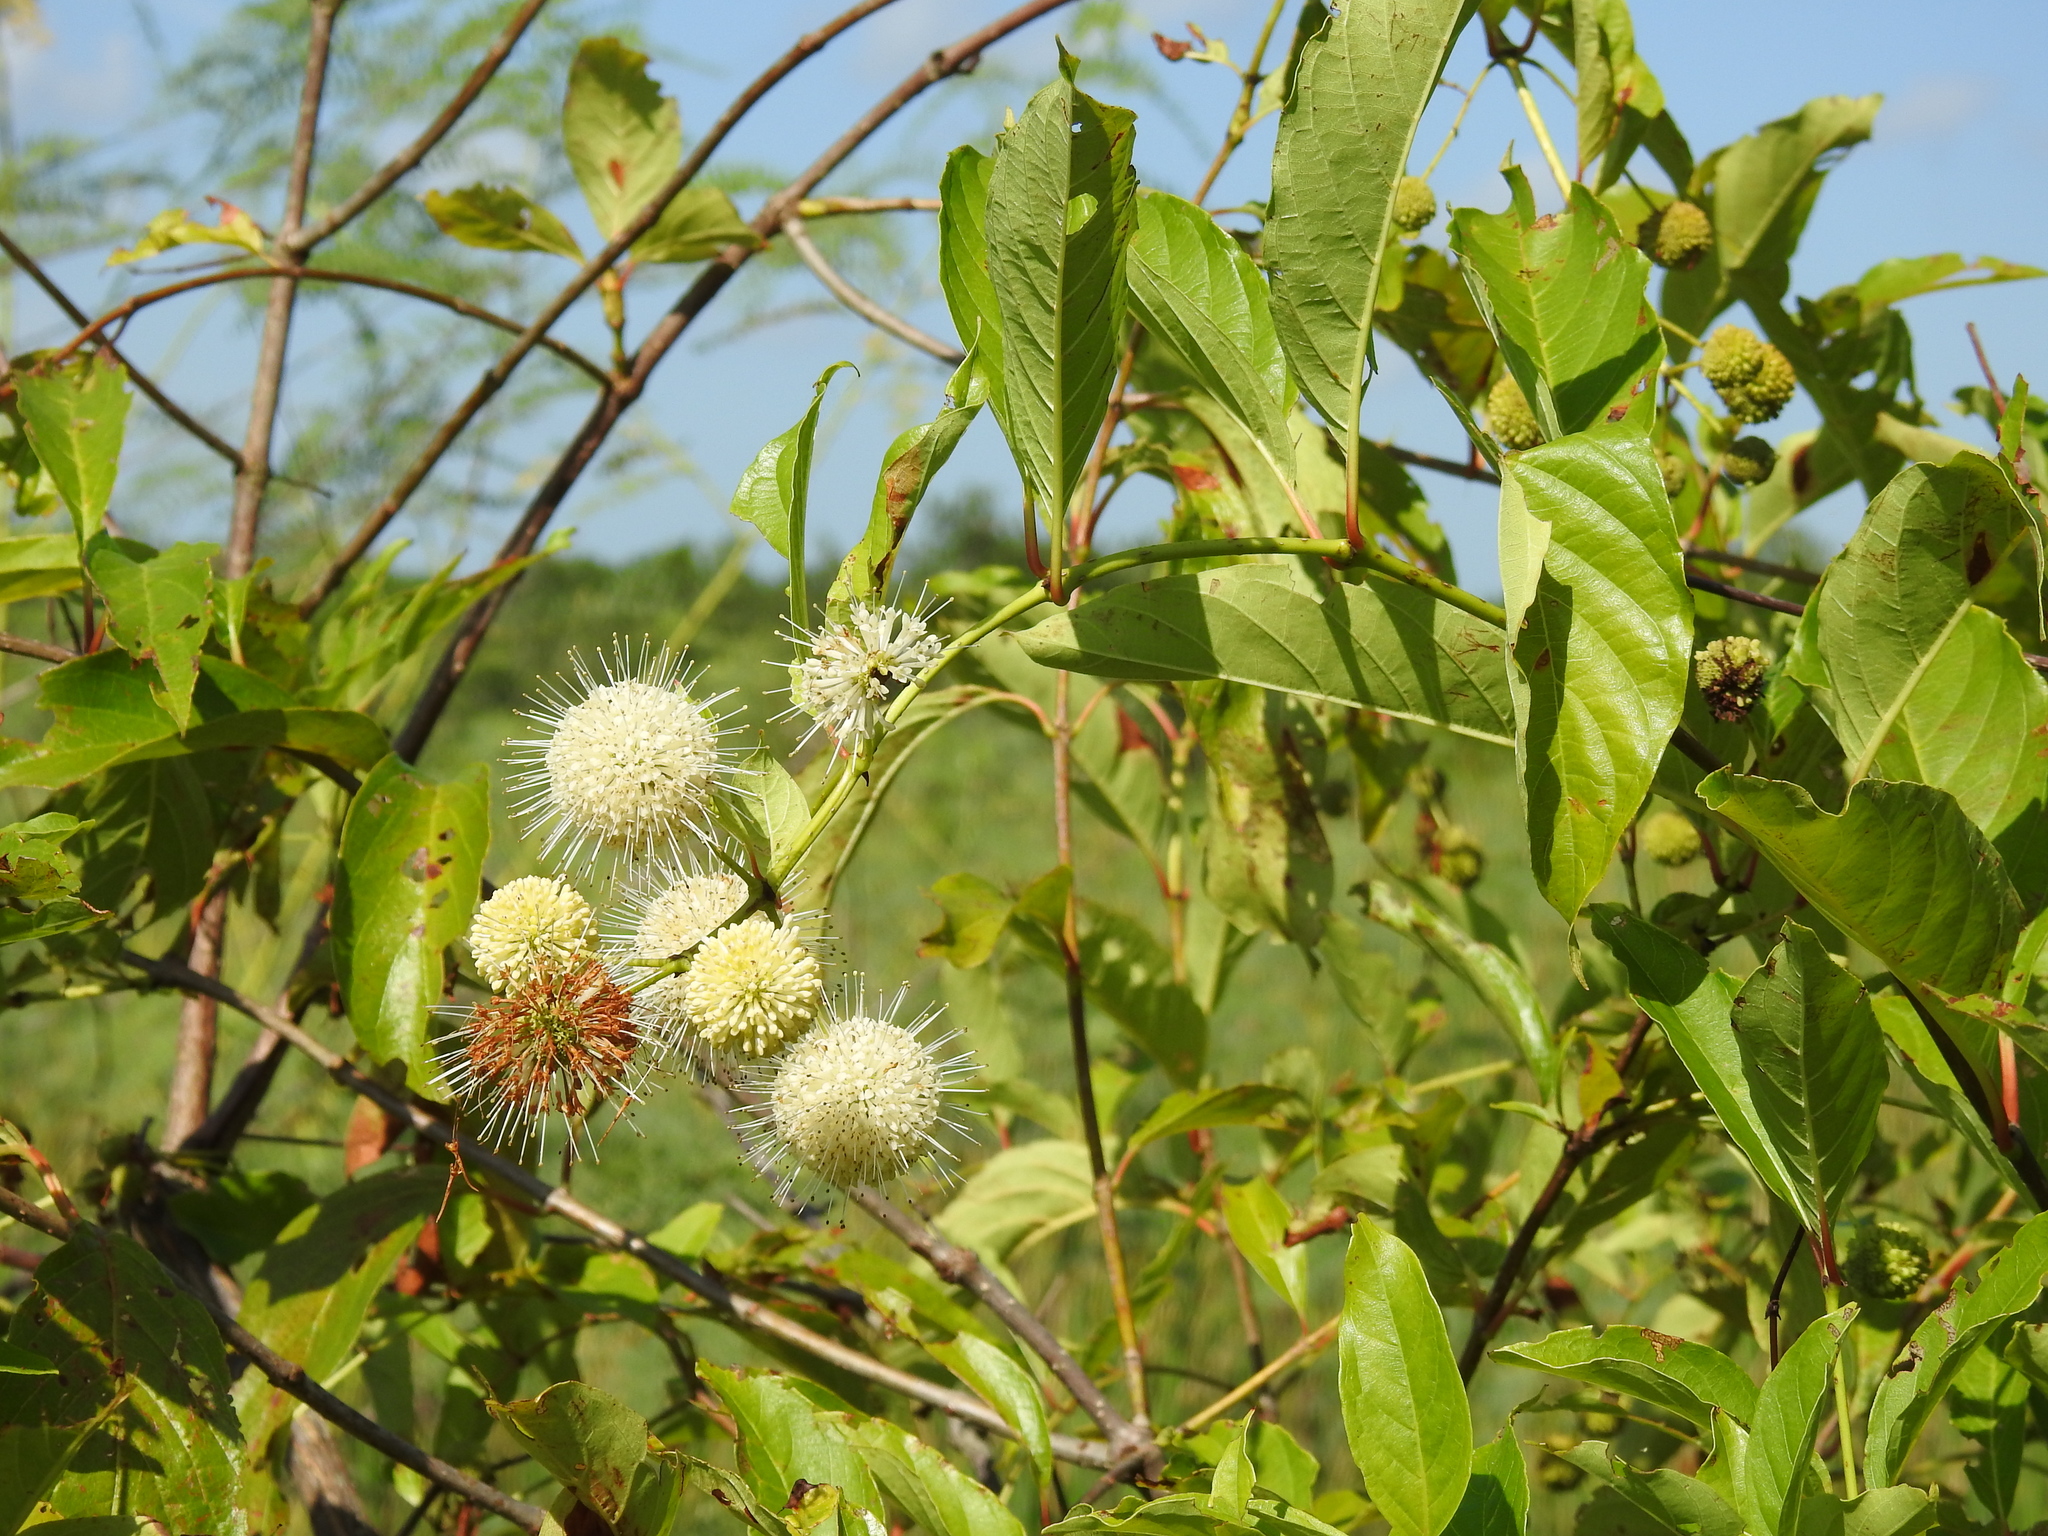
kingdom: Plantae
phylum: Tracheophyta
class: Magnoliopsida
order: Gentianales
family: Rubiaceae
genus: Cephalanthus
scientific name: Cephalanthus occidentalis
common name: Button-willow
